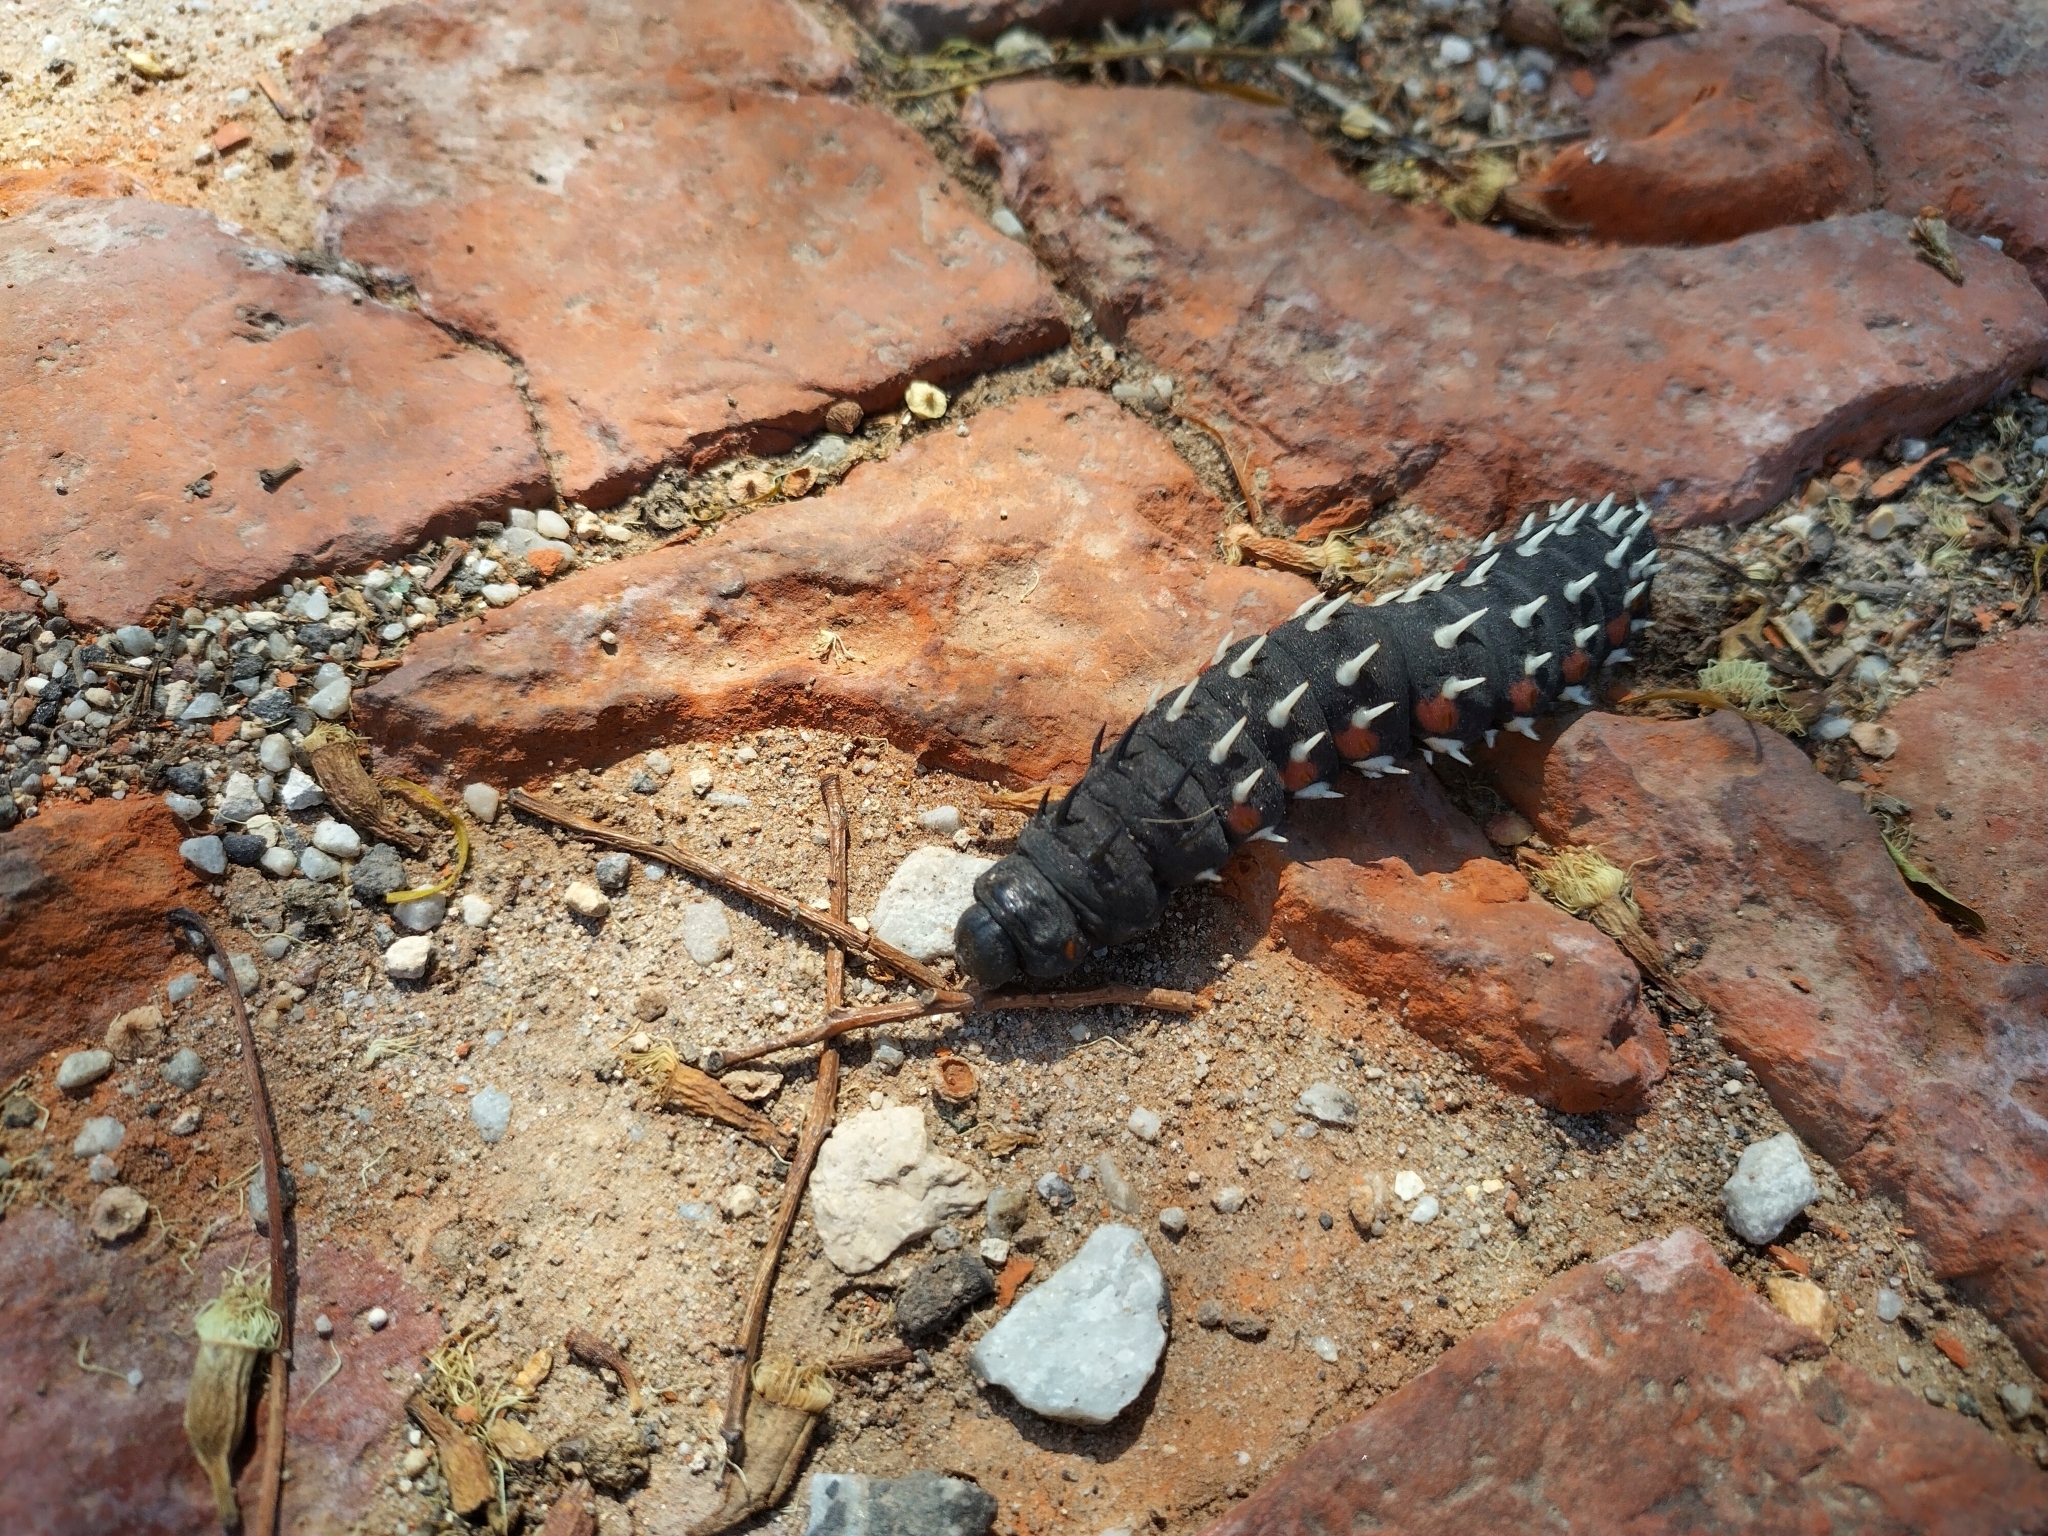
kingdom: Animalia
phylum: Arthropoda
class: Insecta
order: Lepidoptera
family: Saturniidae
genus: Bunaea
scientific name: Bunaea alcinoe
